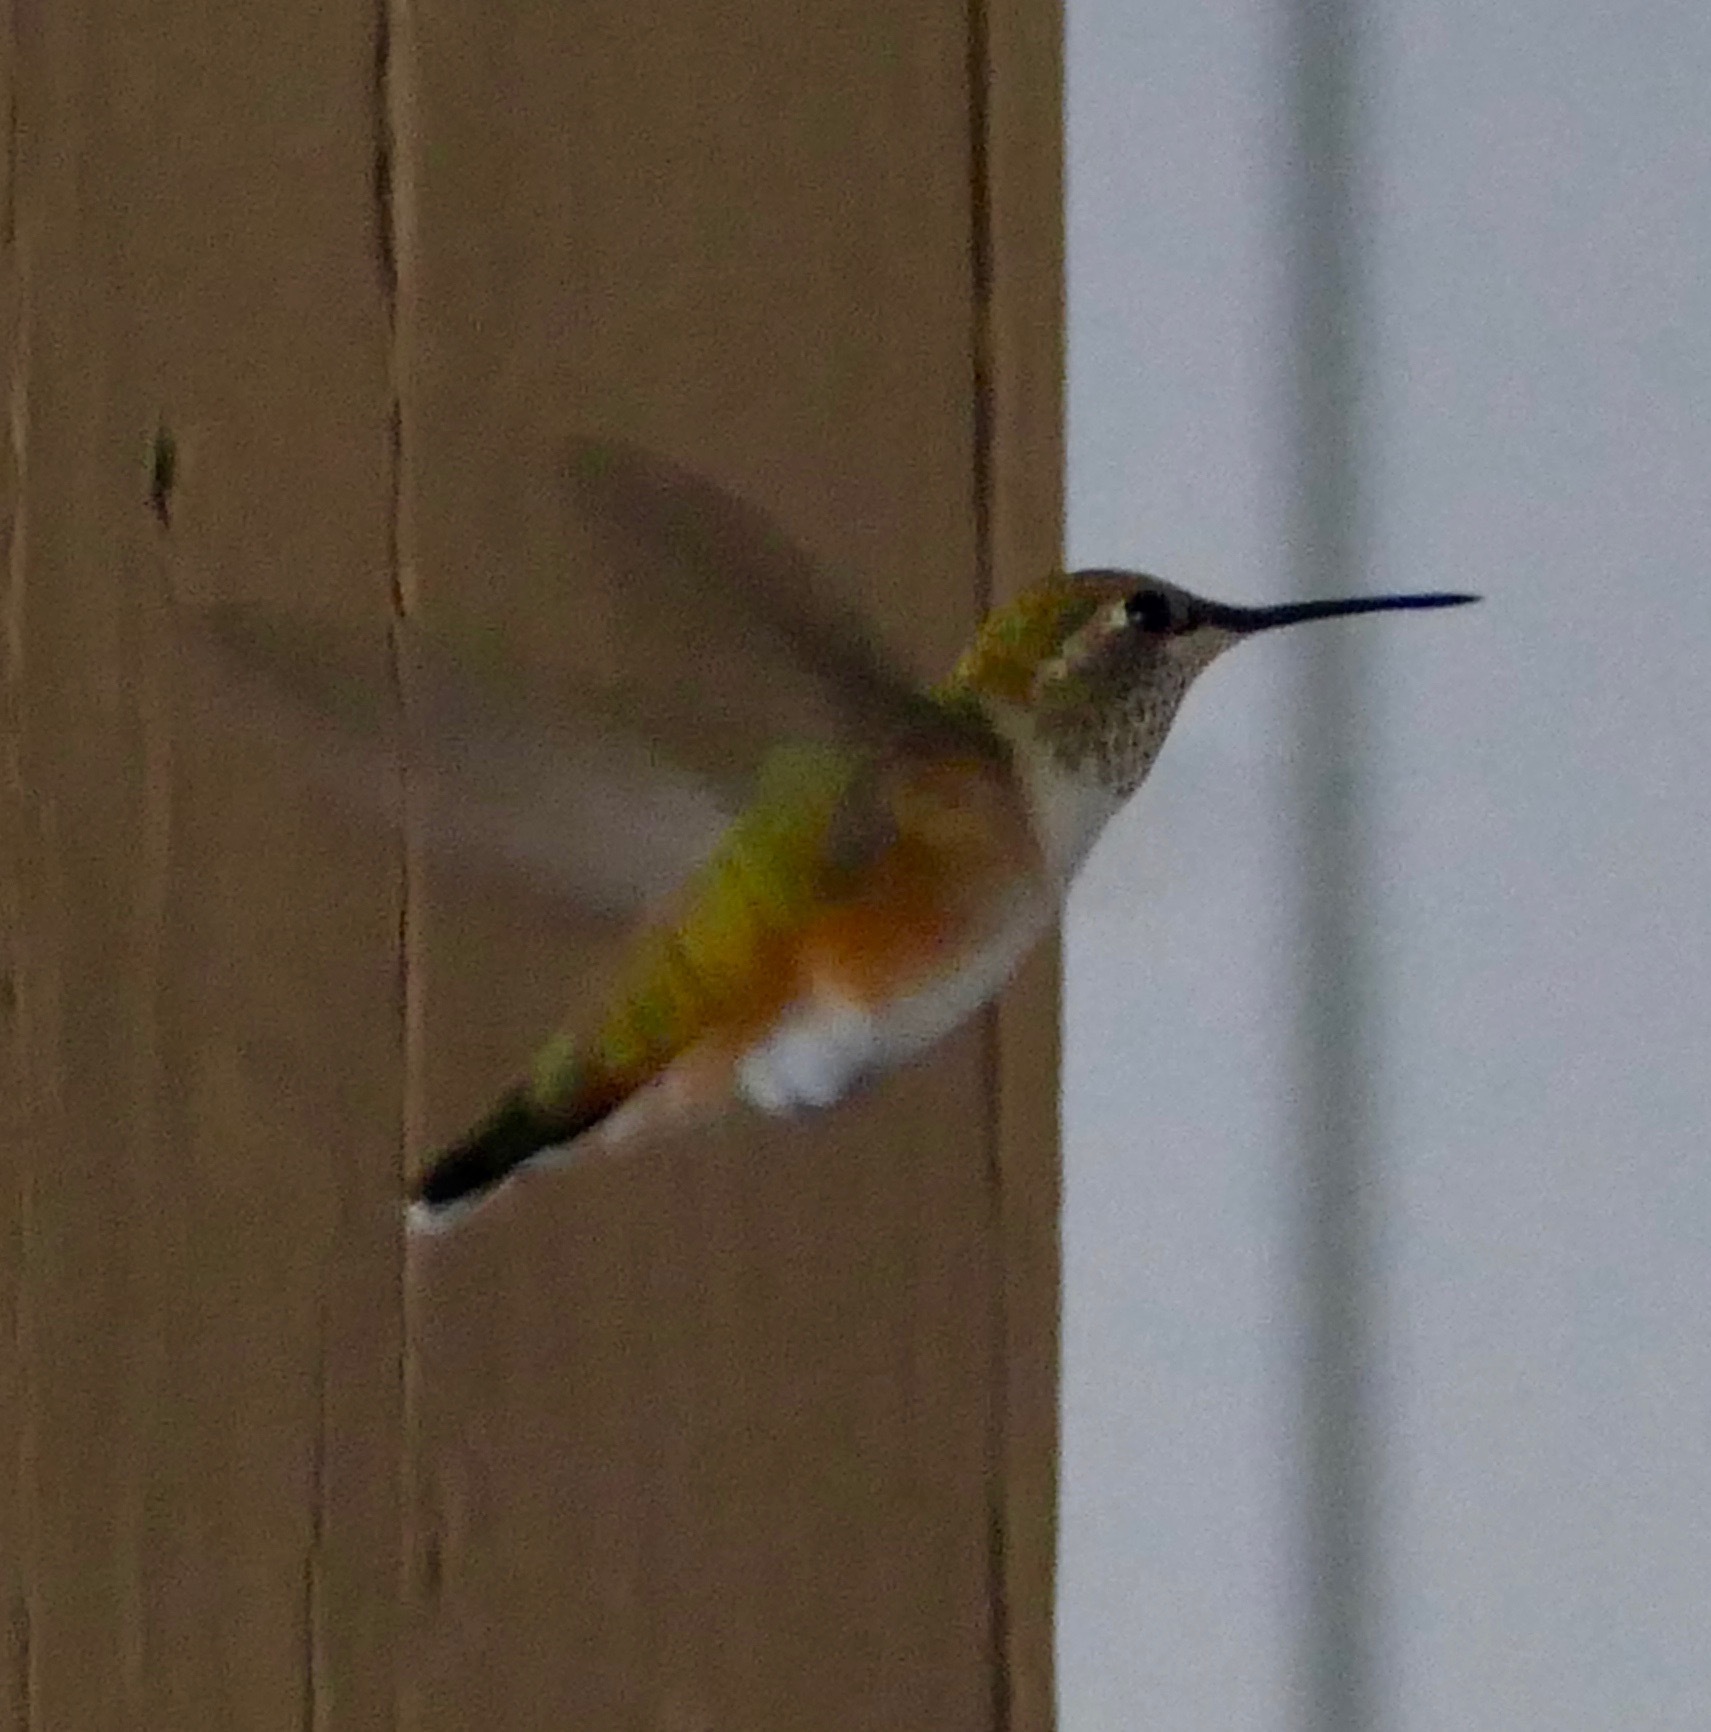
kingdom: Animalia
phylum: Chordata
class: Aves
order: Apodiformes
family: Trochilidae
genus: Selasphorus
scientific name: Selasphorus rufus
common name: Rufous hummingbird
